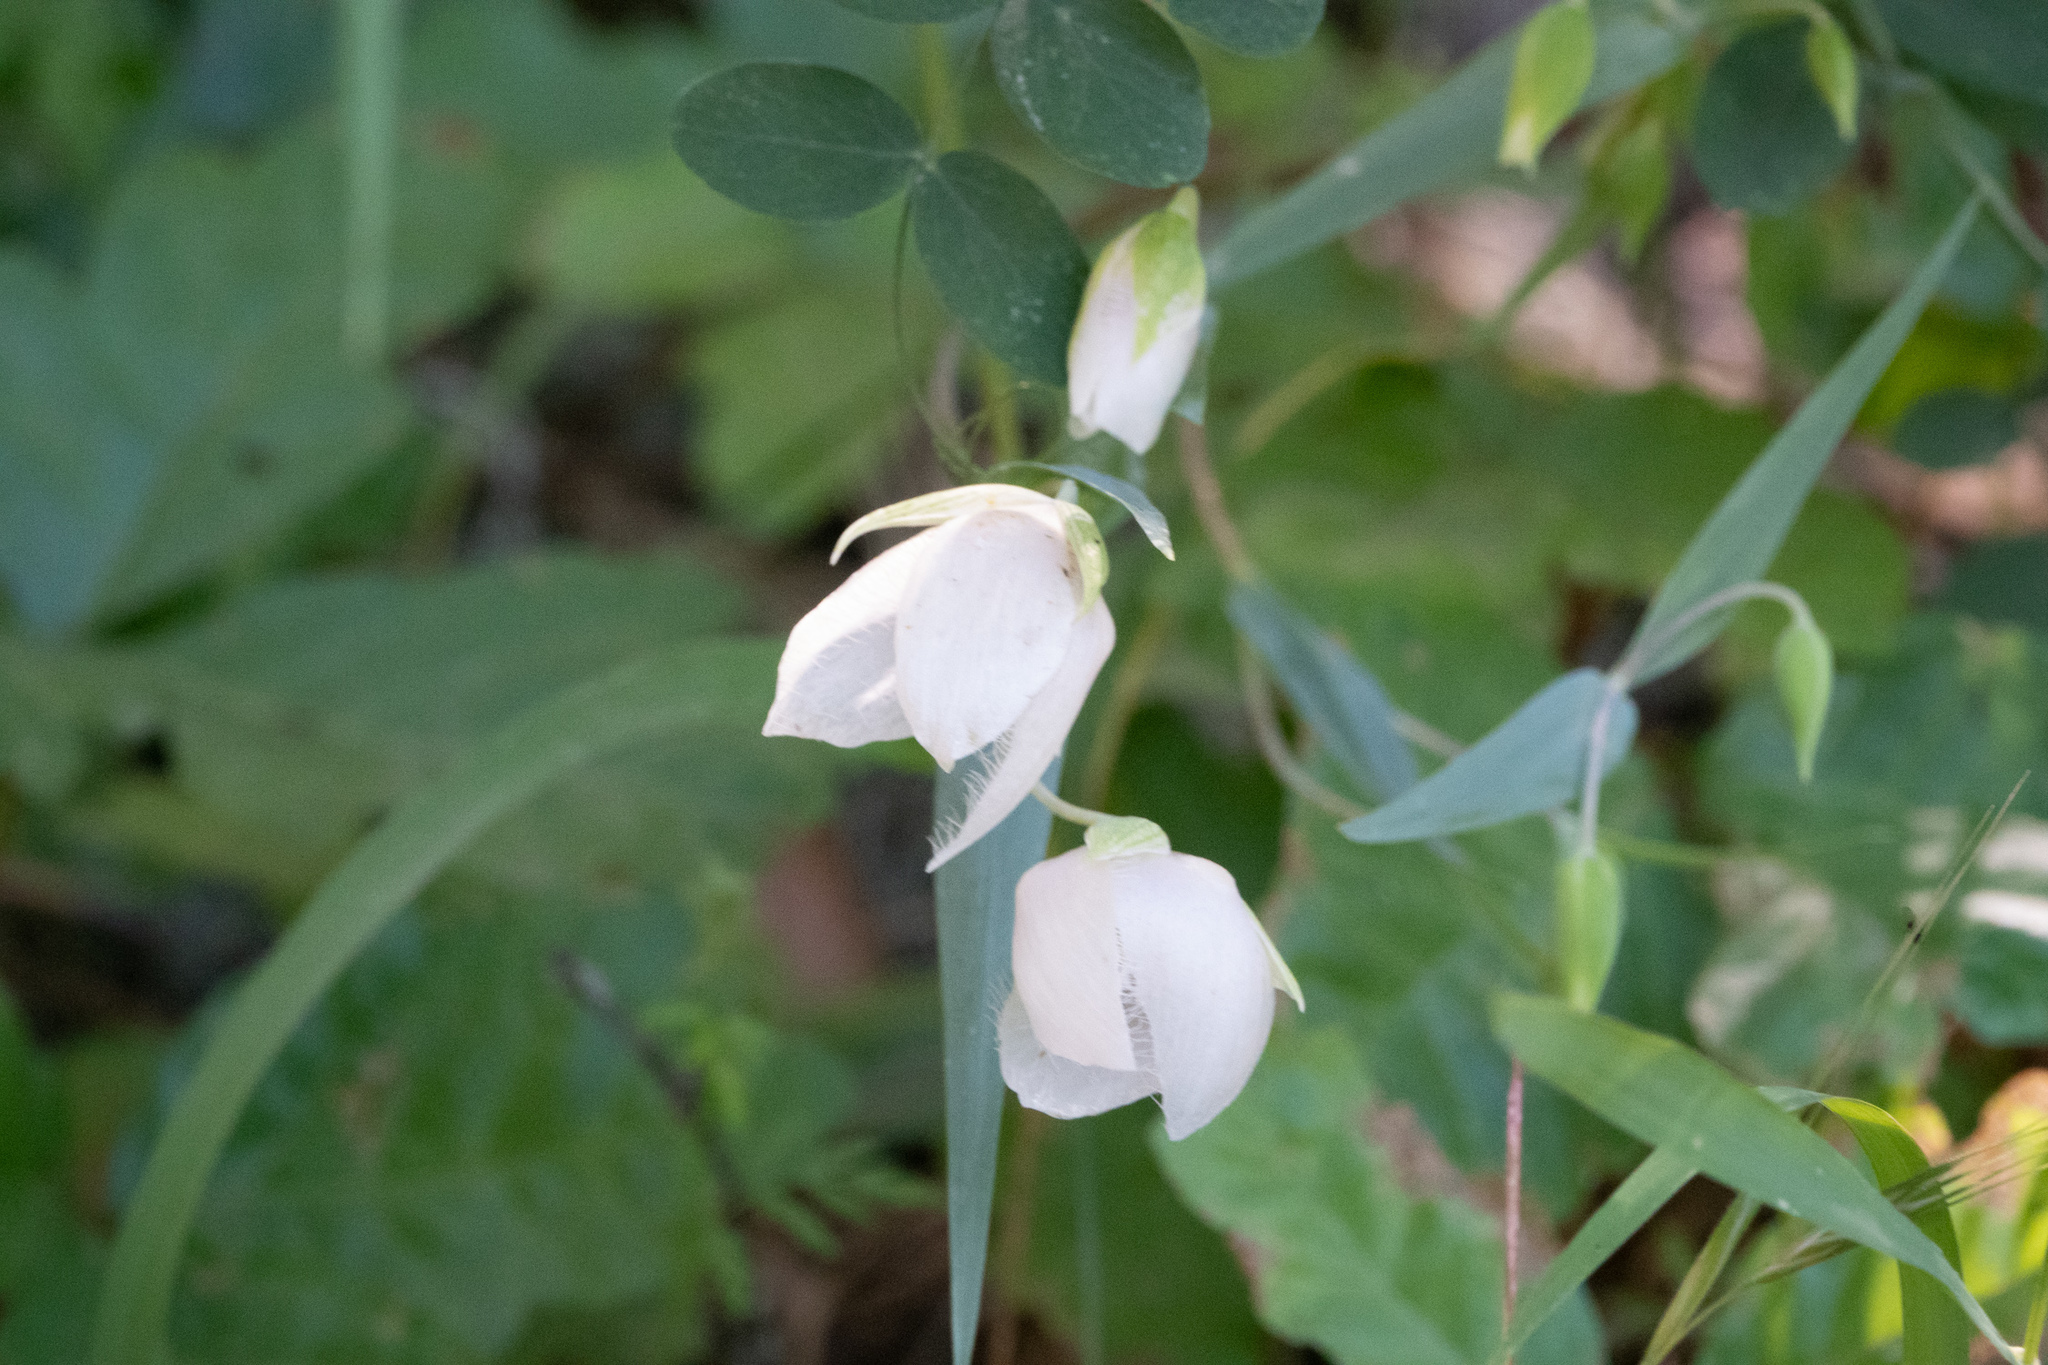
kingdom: Plantae
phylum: Tracheophyta
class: Liliopsida
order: Liliales
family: Liliaceae
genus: Calochortus
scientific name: Calochortus albus
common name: Fairy-lantern
